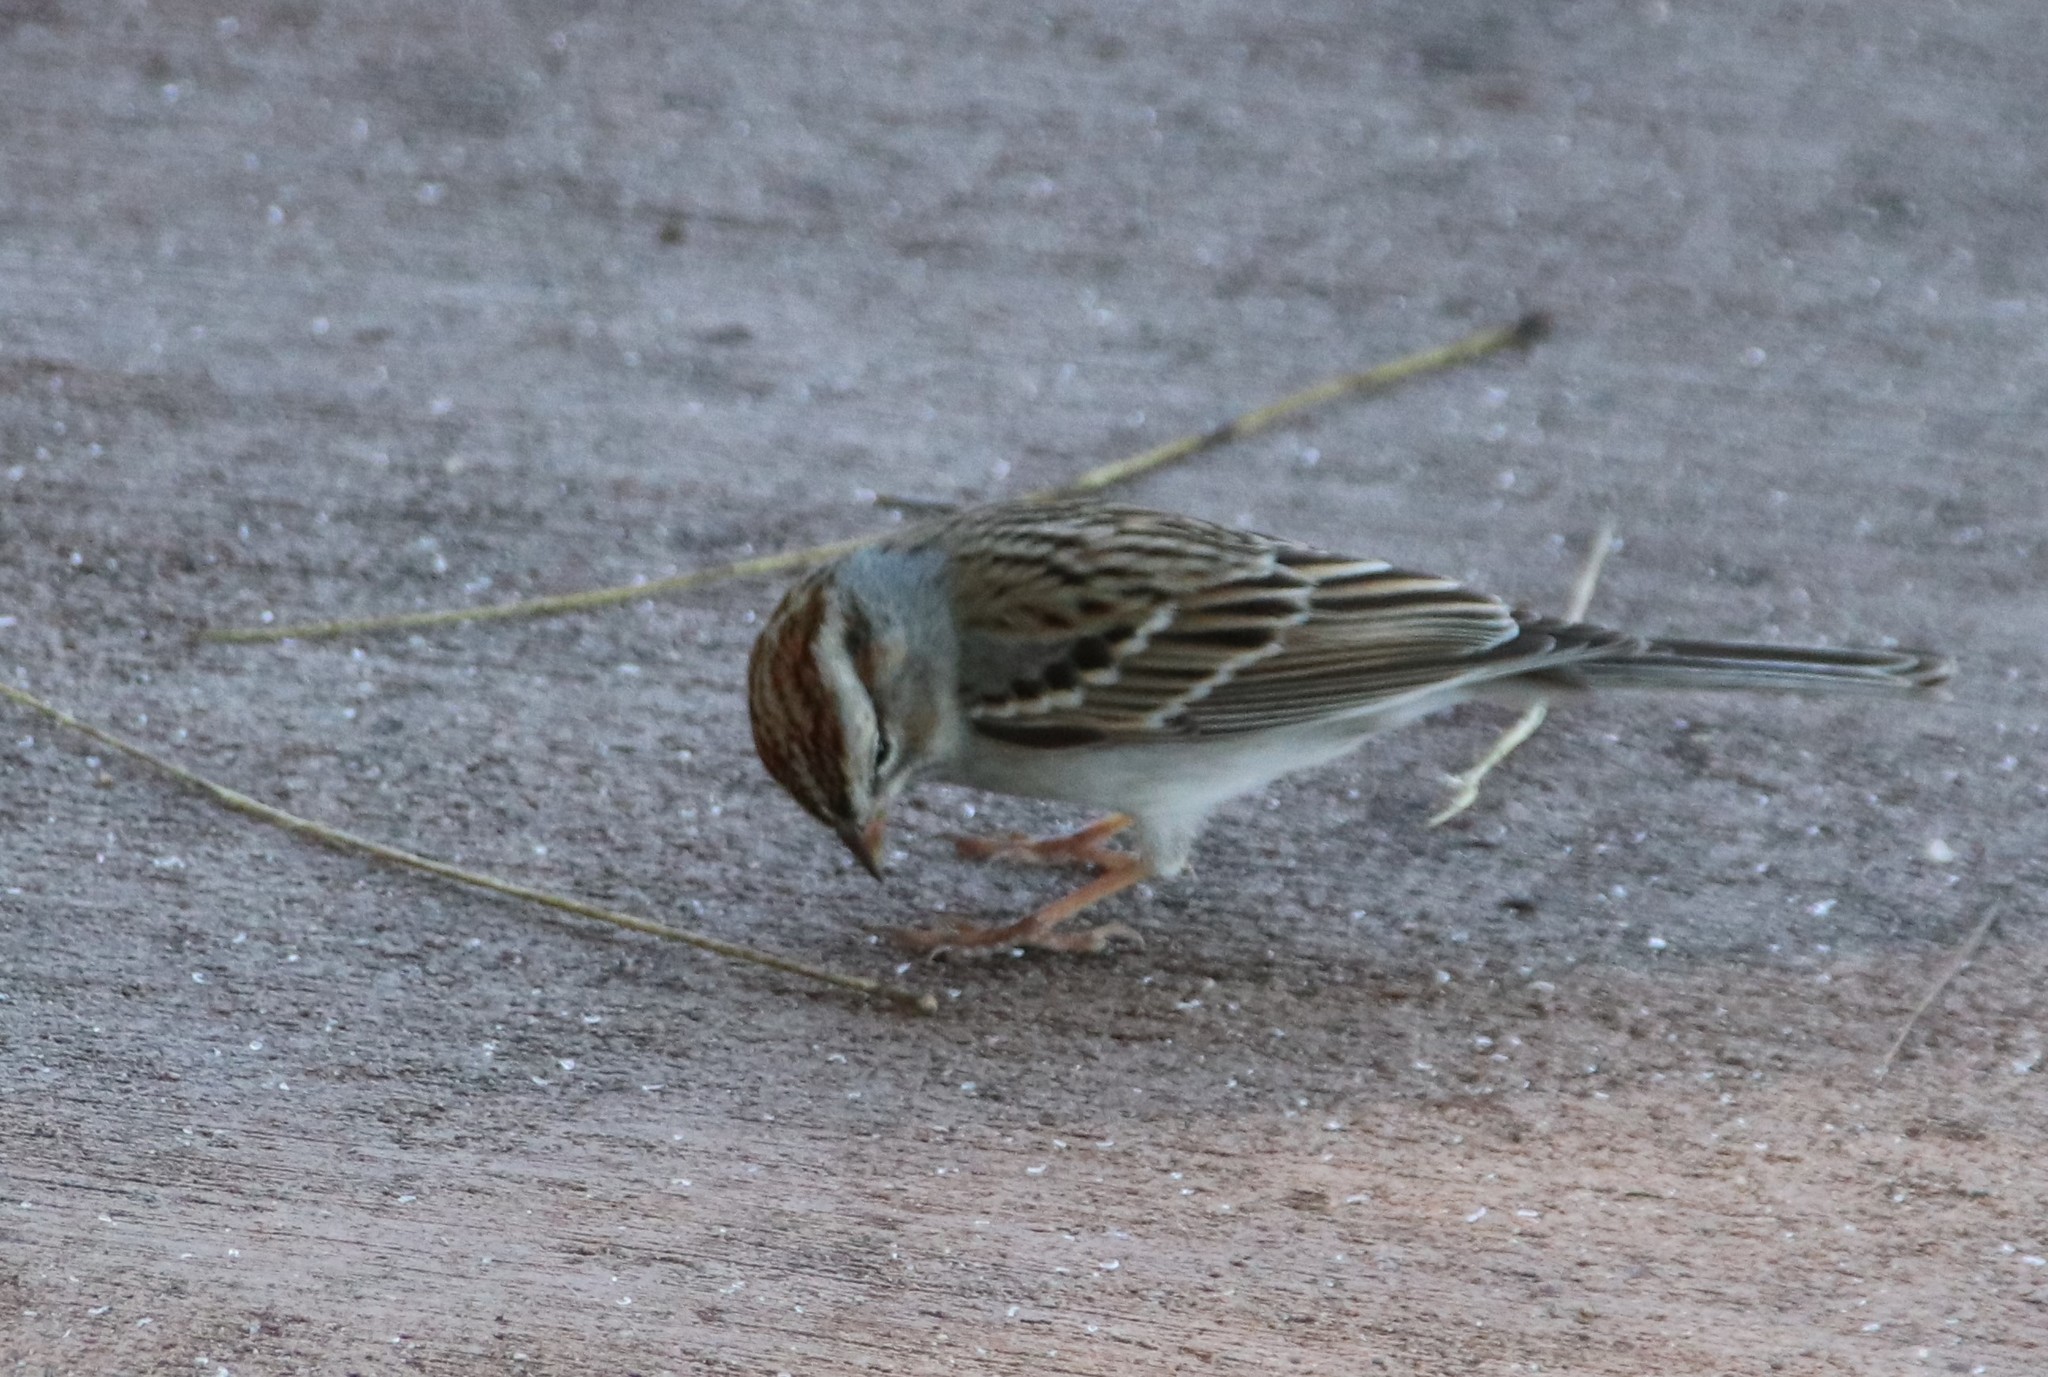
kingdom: Animalia
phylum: Chordata
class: Aves
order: Passeriformes
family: Passerellidae
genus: Spizella
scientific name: Spizella passerina
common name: Chipping sparrow
